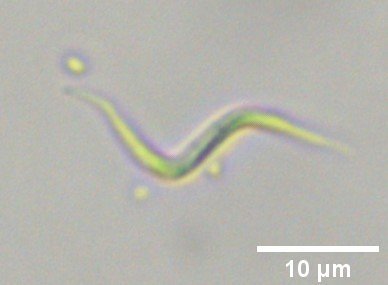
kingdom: Plantae
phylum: Chlorophyta
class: Chlorophyceae
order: Sphaeropleales
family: Selenastraceae
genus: Monoraphidium
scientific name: Monoraphidium contortum
